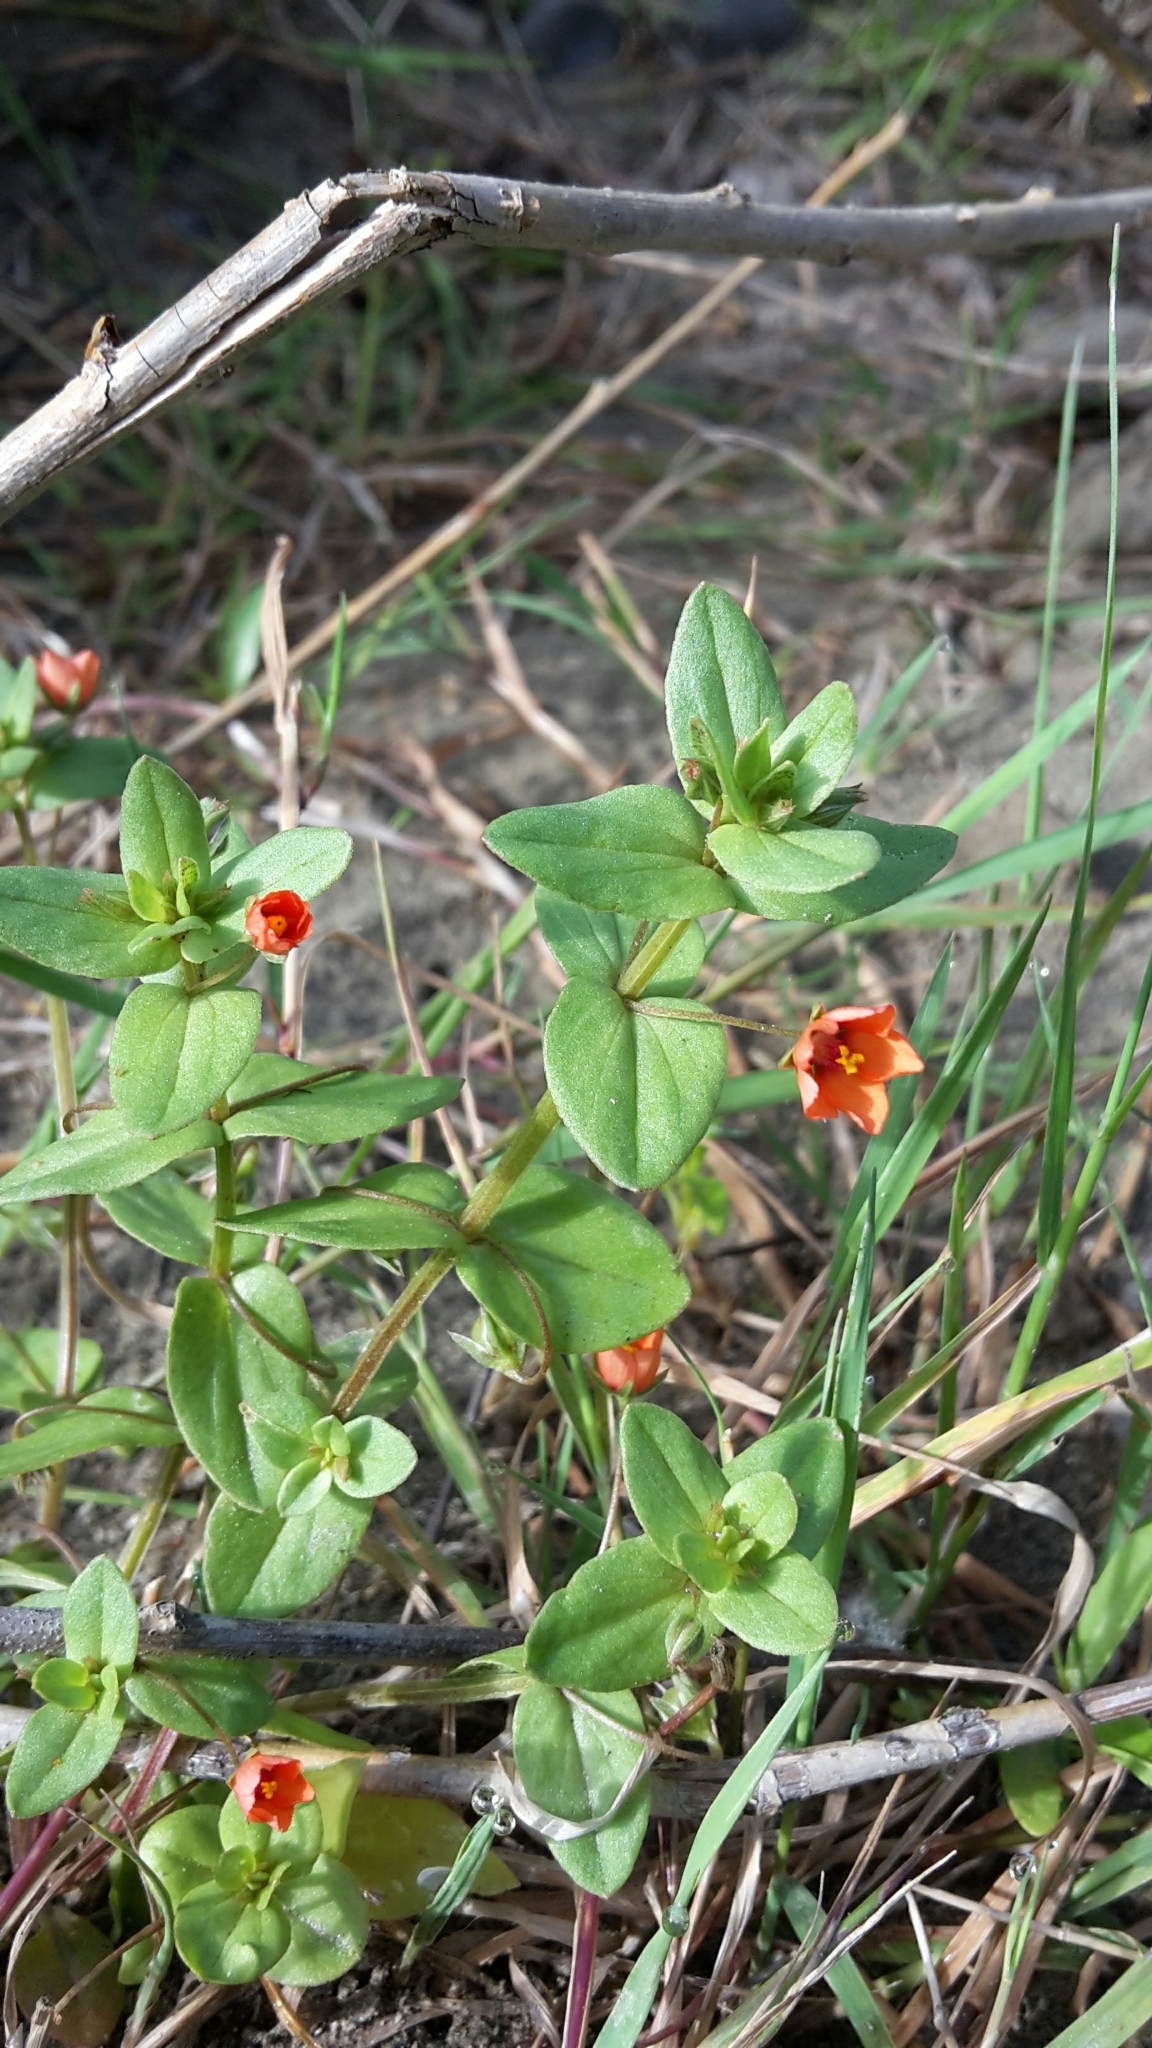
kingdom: Plantae
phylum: Tracheophyta
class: Magnoliopsida
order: Ericales
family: Primulaceae
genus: Lysimachia
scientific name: Lysimachia arvensis
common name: Scarlet pimpernel
